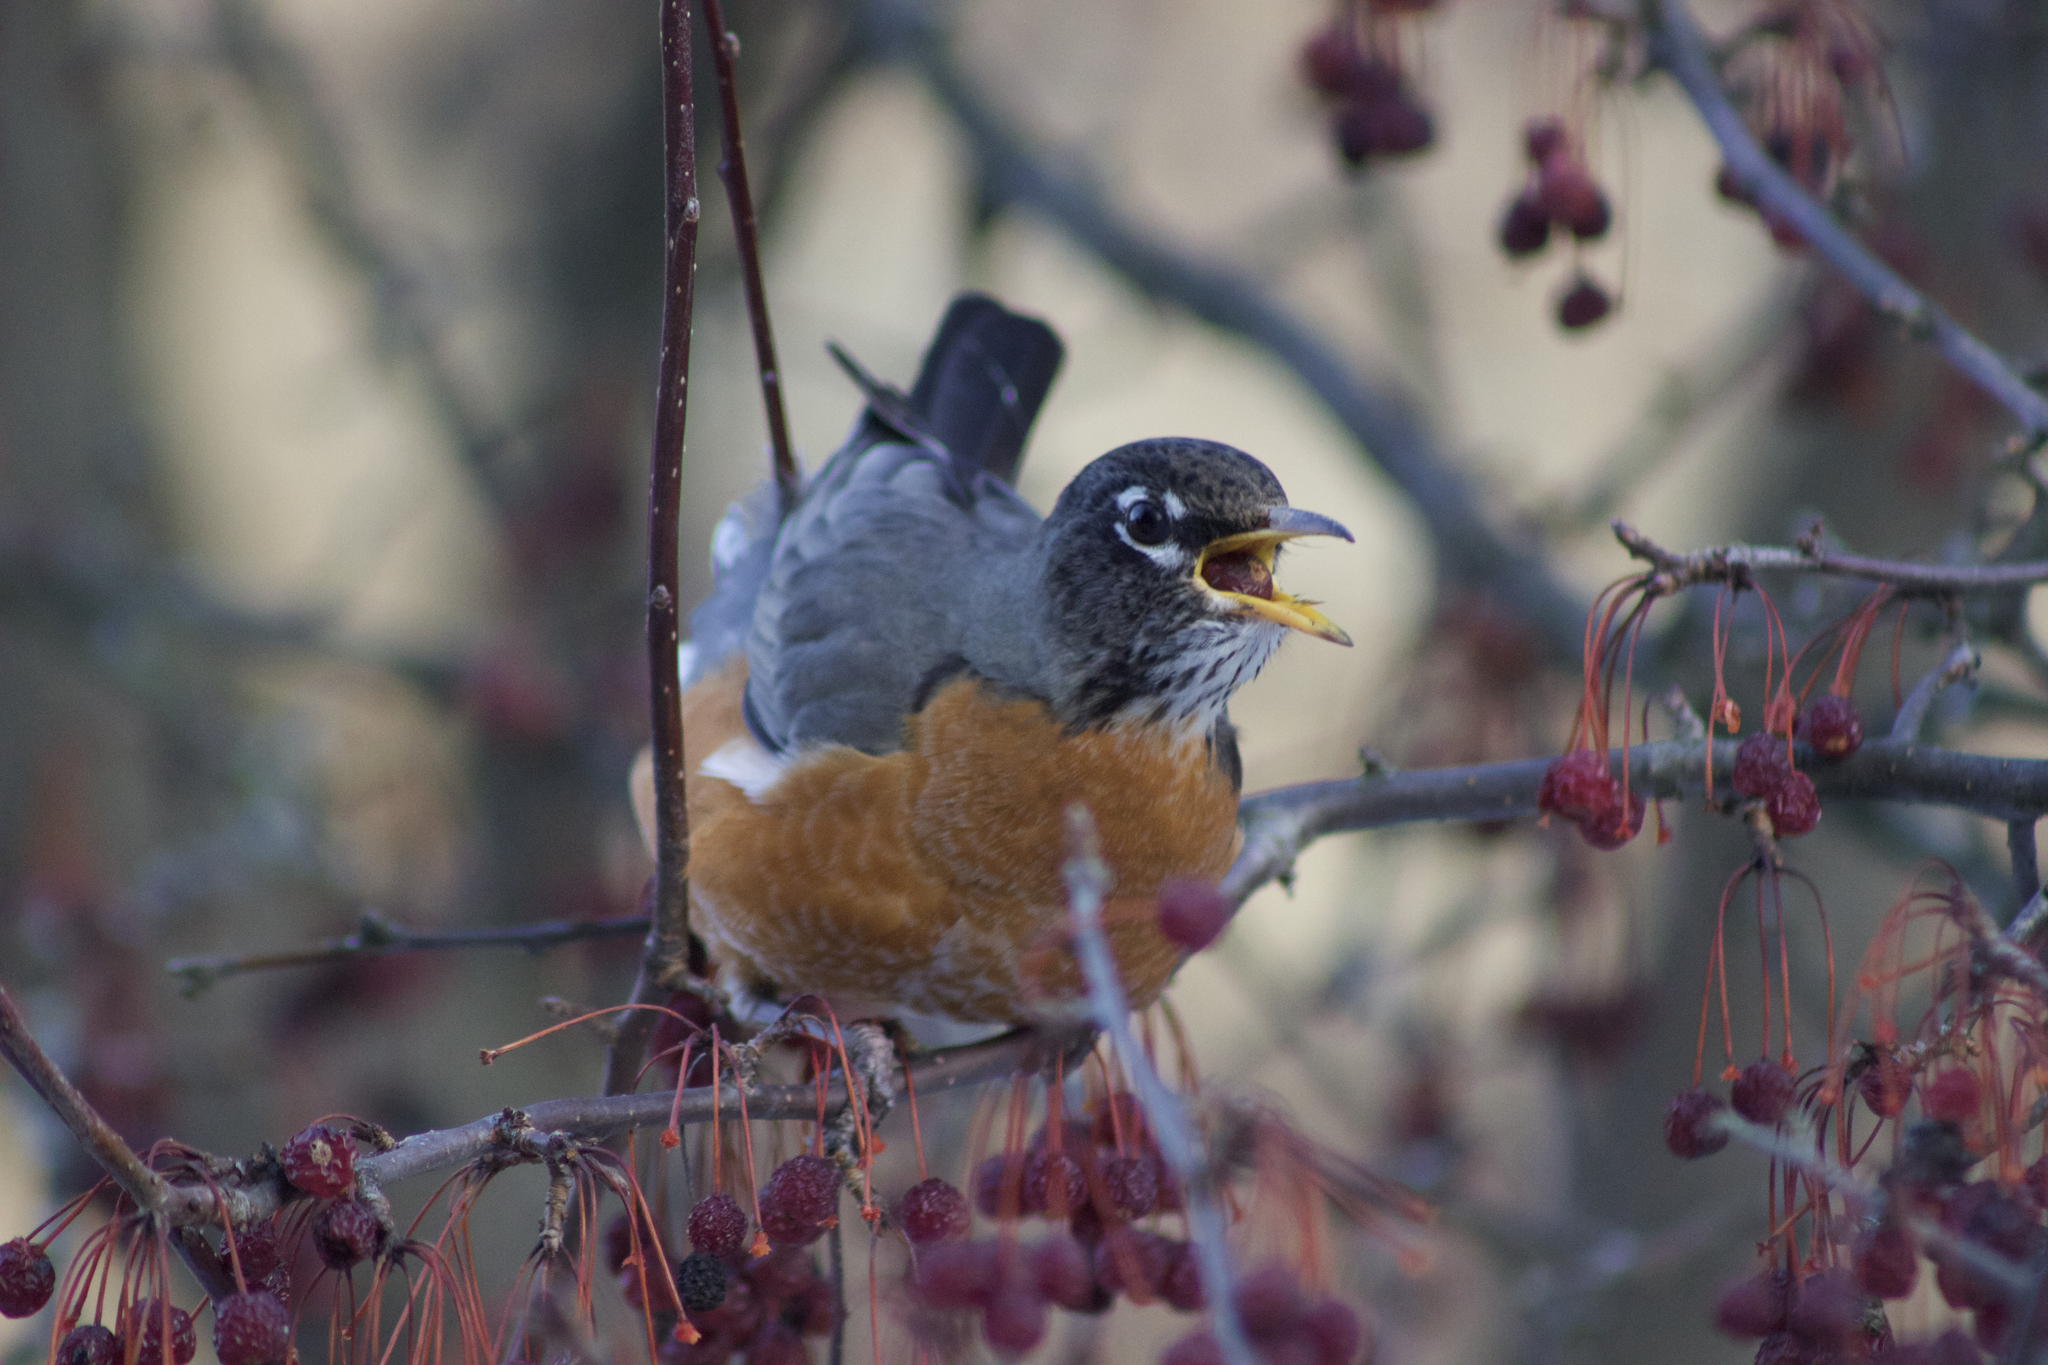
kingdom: Animalia
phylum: Chordata
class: Aves
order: Passeriformes
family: Turdidae
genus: Turdus
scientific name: Turdus migratorius
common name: American robin
